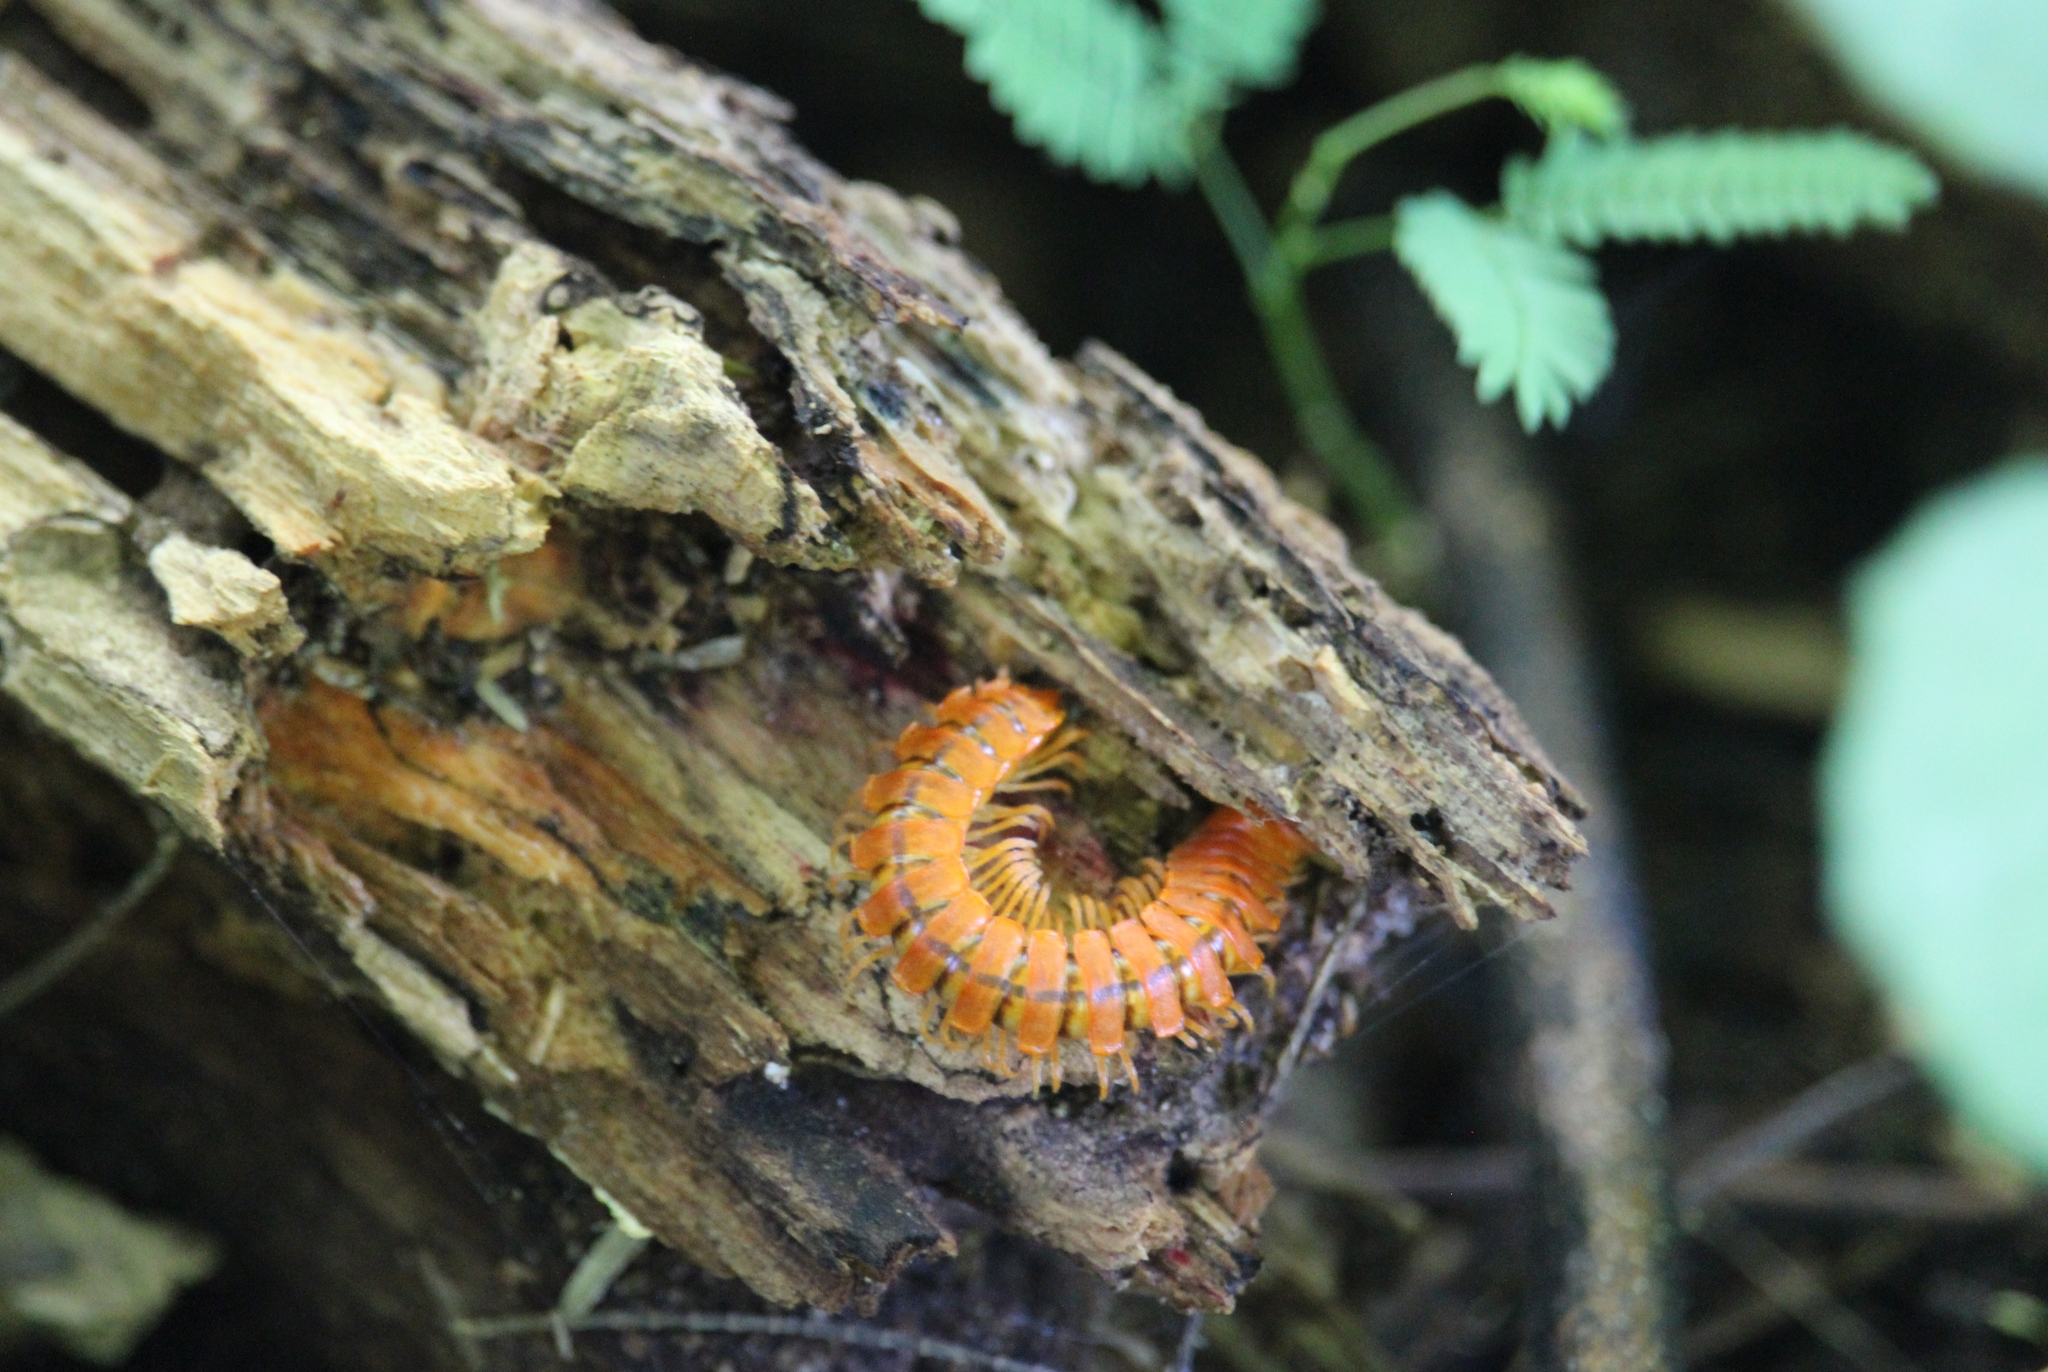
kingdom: Animalia
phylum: Arthropoda
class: Diplopoda
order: Polydesmida
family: Rhachodesmidae
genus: Aceratophallus
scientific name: Aceratophallus maya
